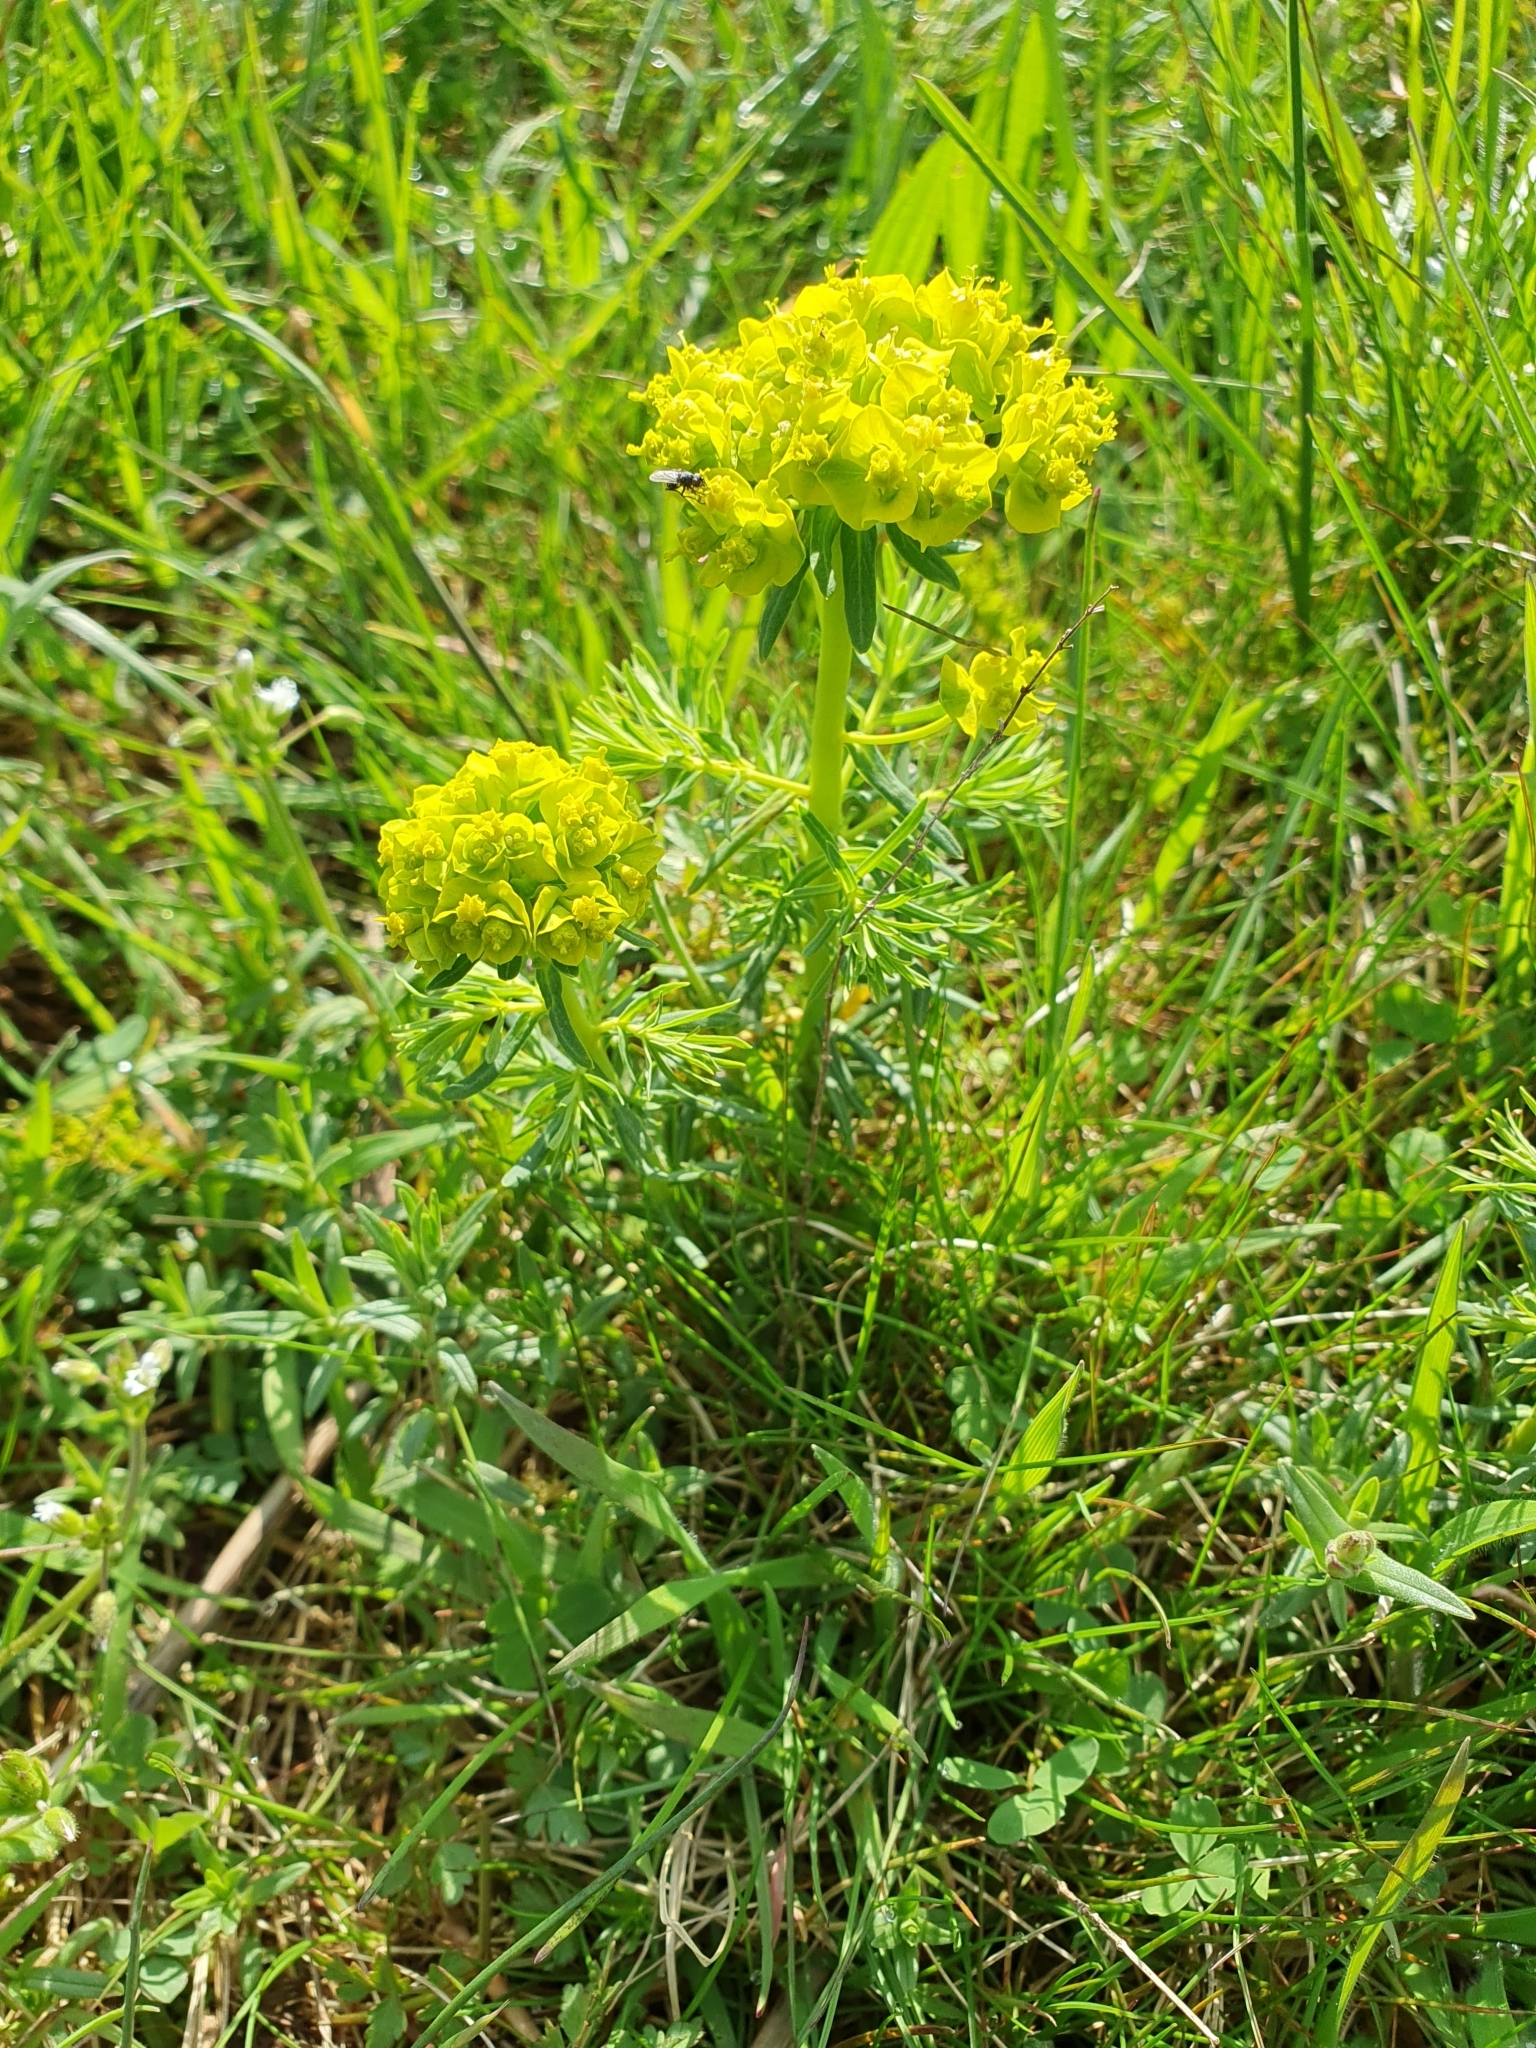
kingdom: Plantae
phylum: Tracheophyta
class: Magnoliopsida
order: Malpighiales
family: Euphorbiaceae
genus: Euphorbia
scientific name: Euphorbia cyparissias
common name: Cypress spurge
